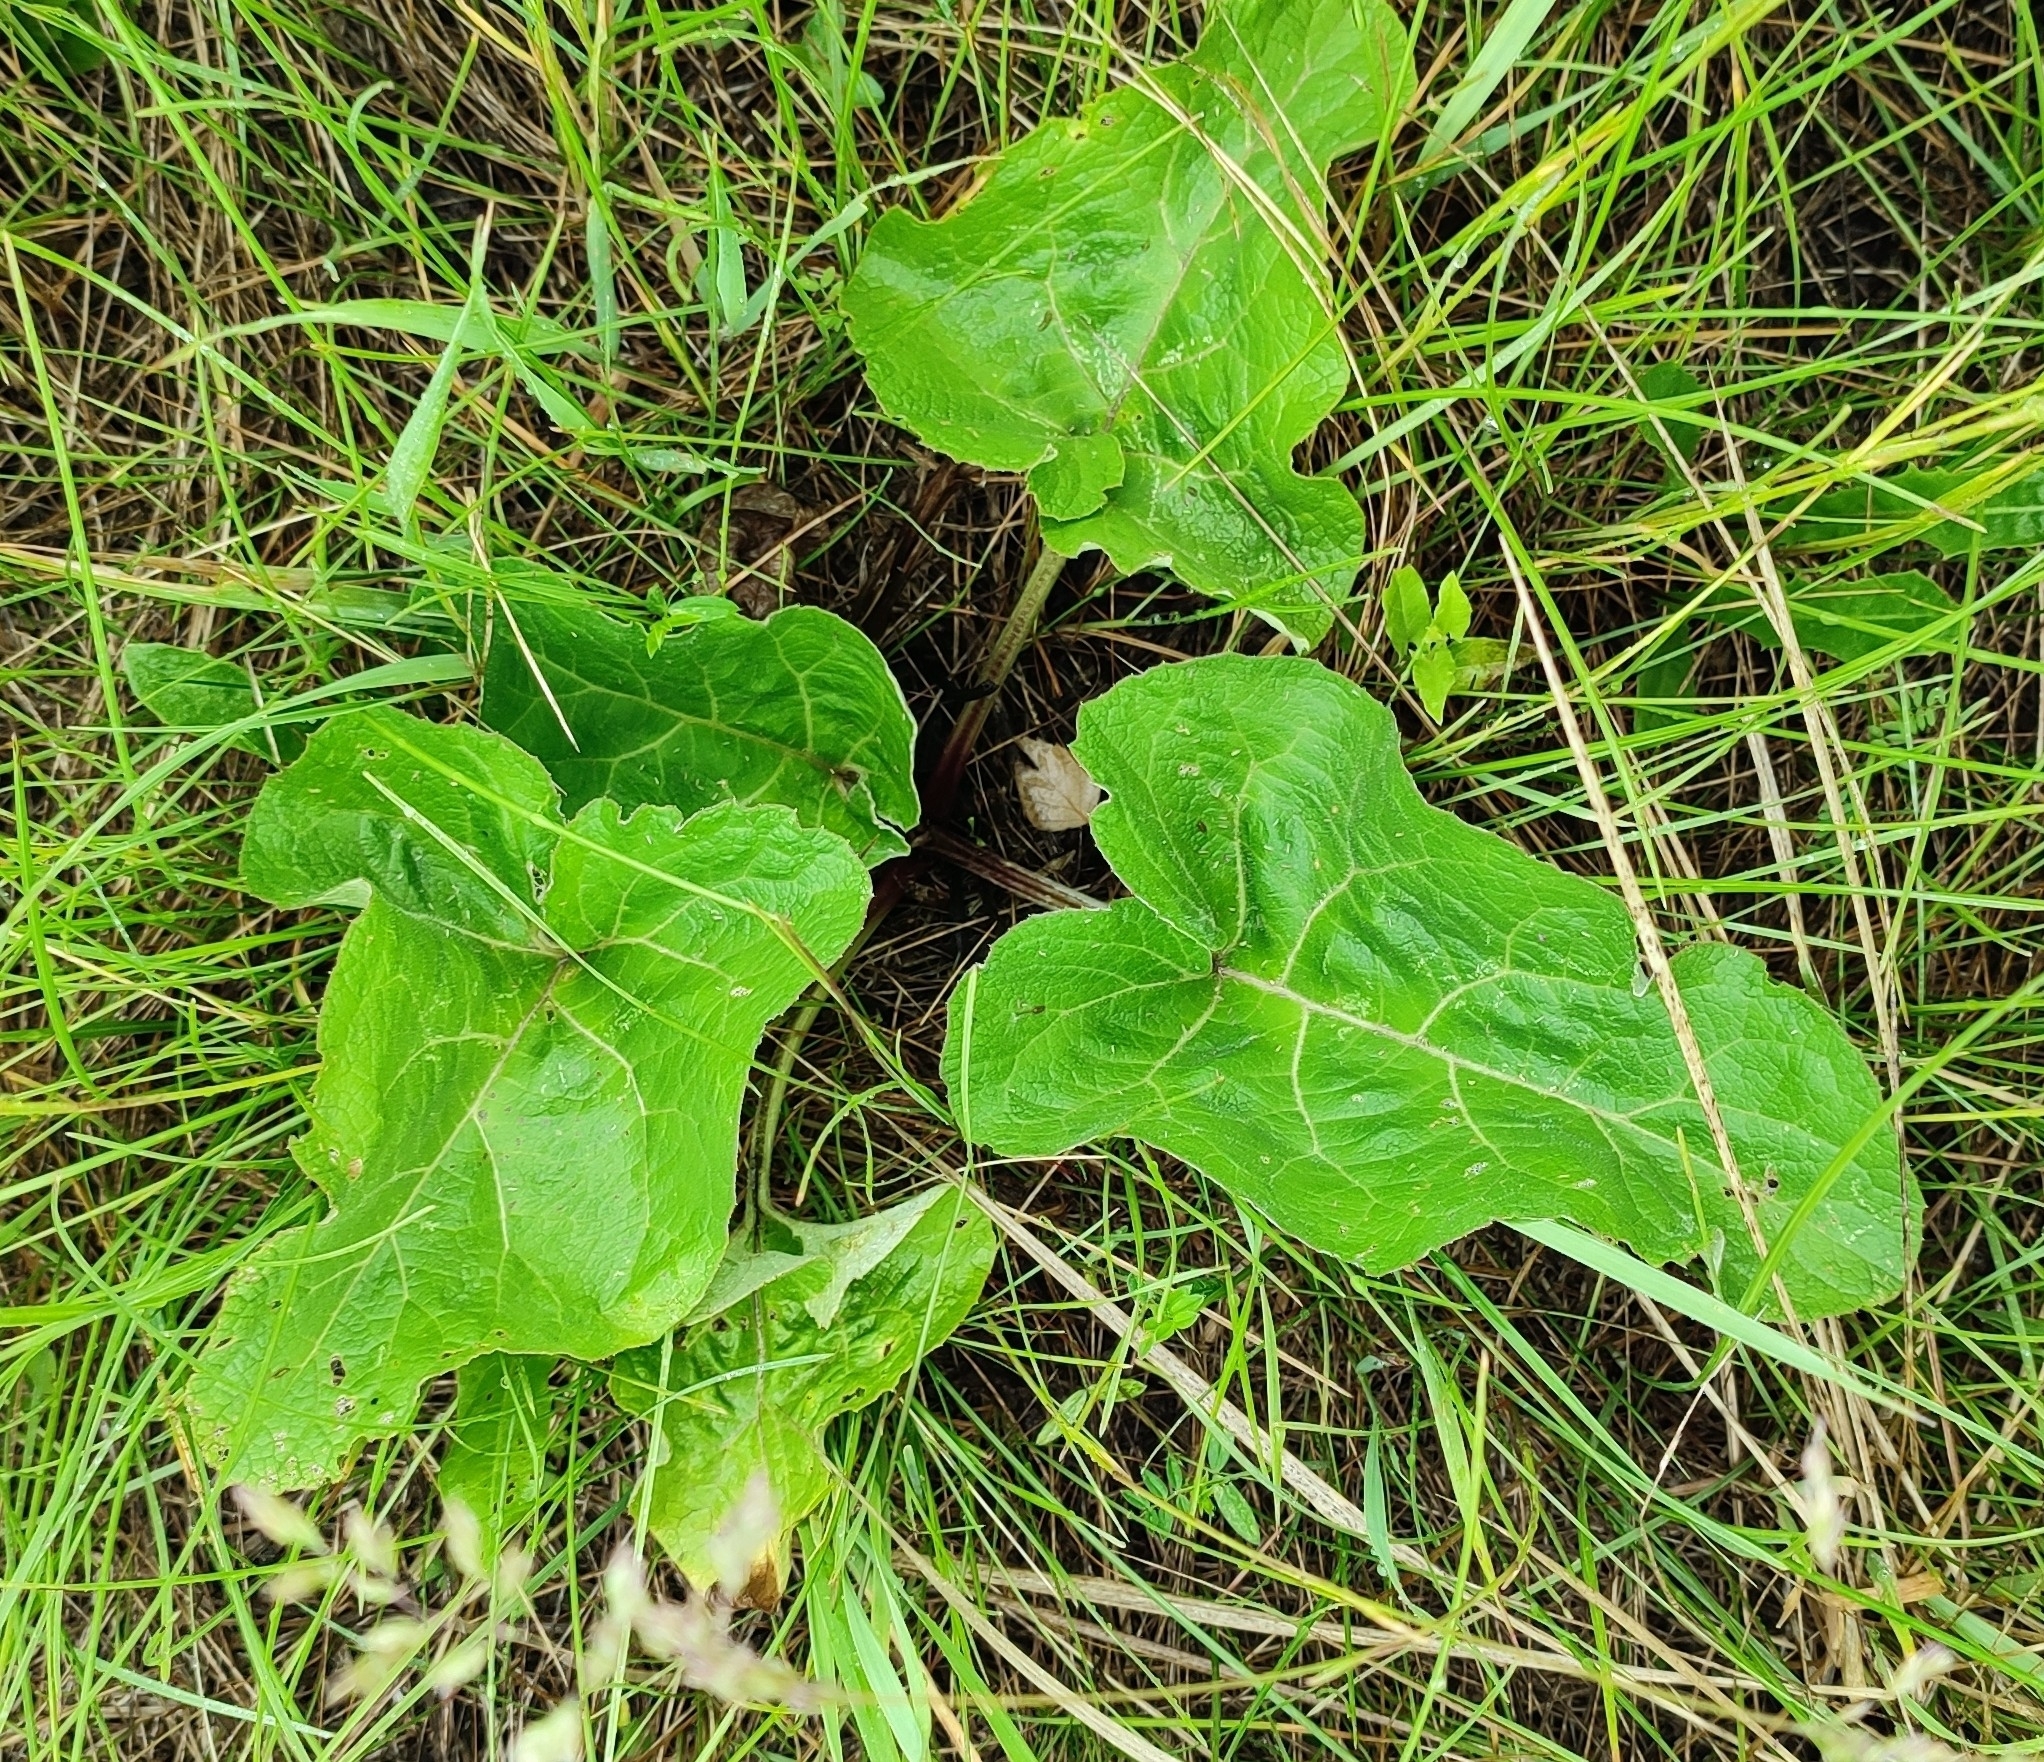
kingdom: Plantae
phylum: Tracheophyta
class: Magnoliopsida
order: Asterales
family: Asteraceae
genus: Arctium
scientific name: Arctium tomentosum
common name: Woolly burdock
